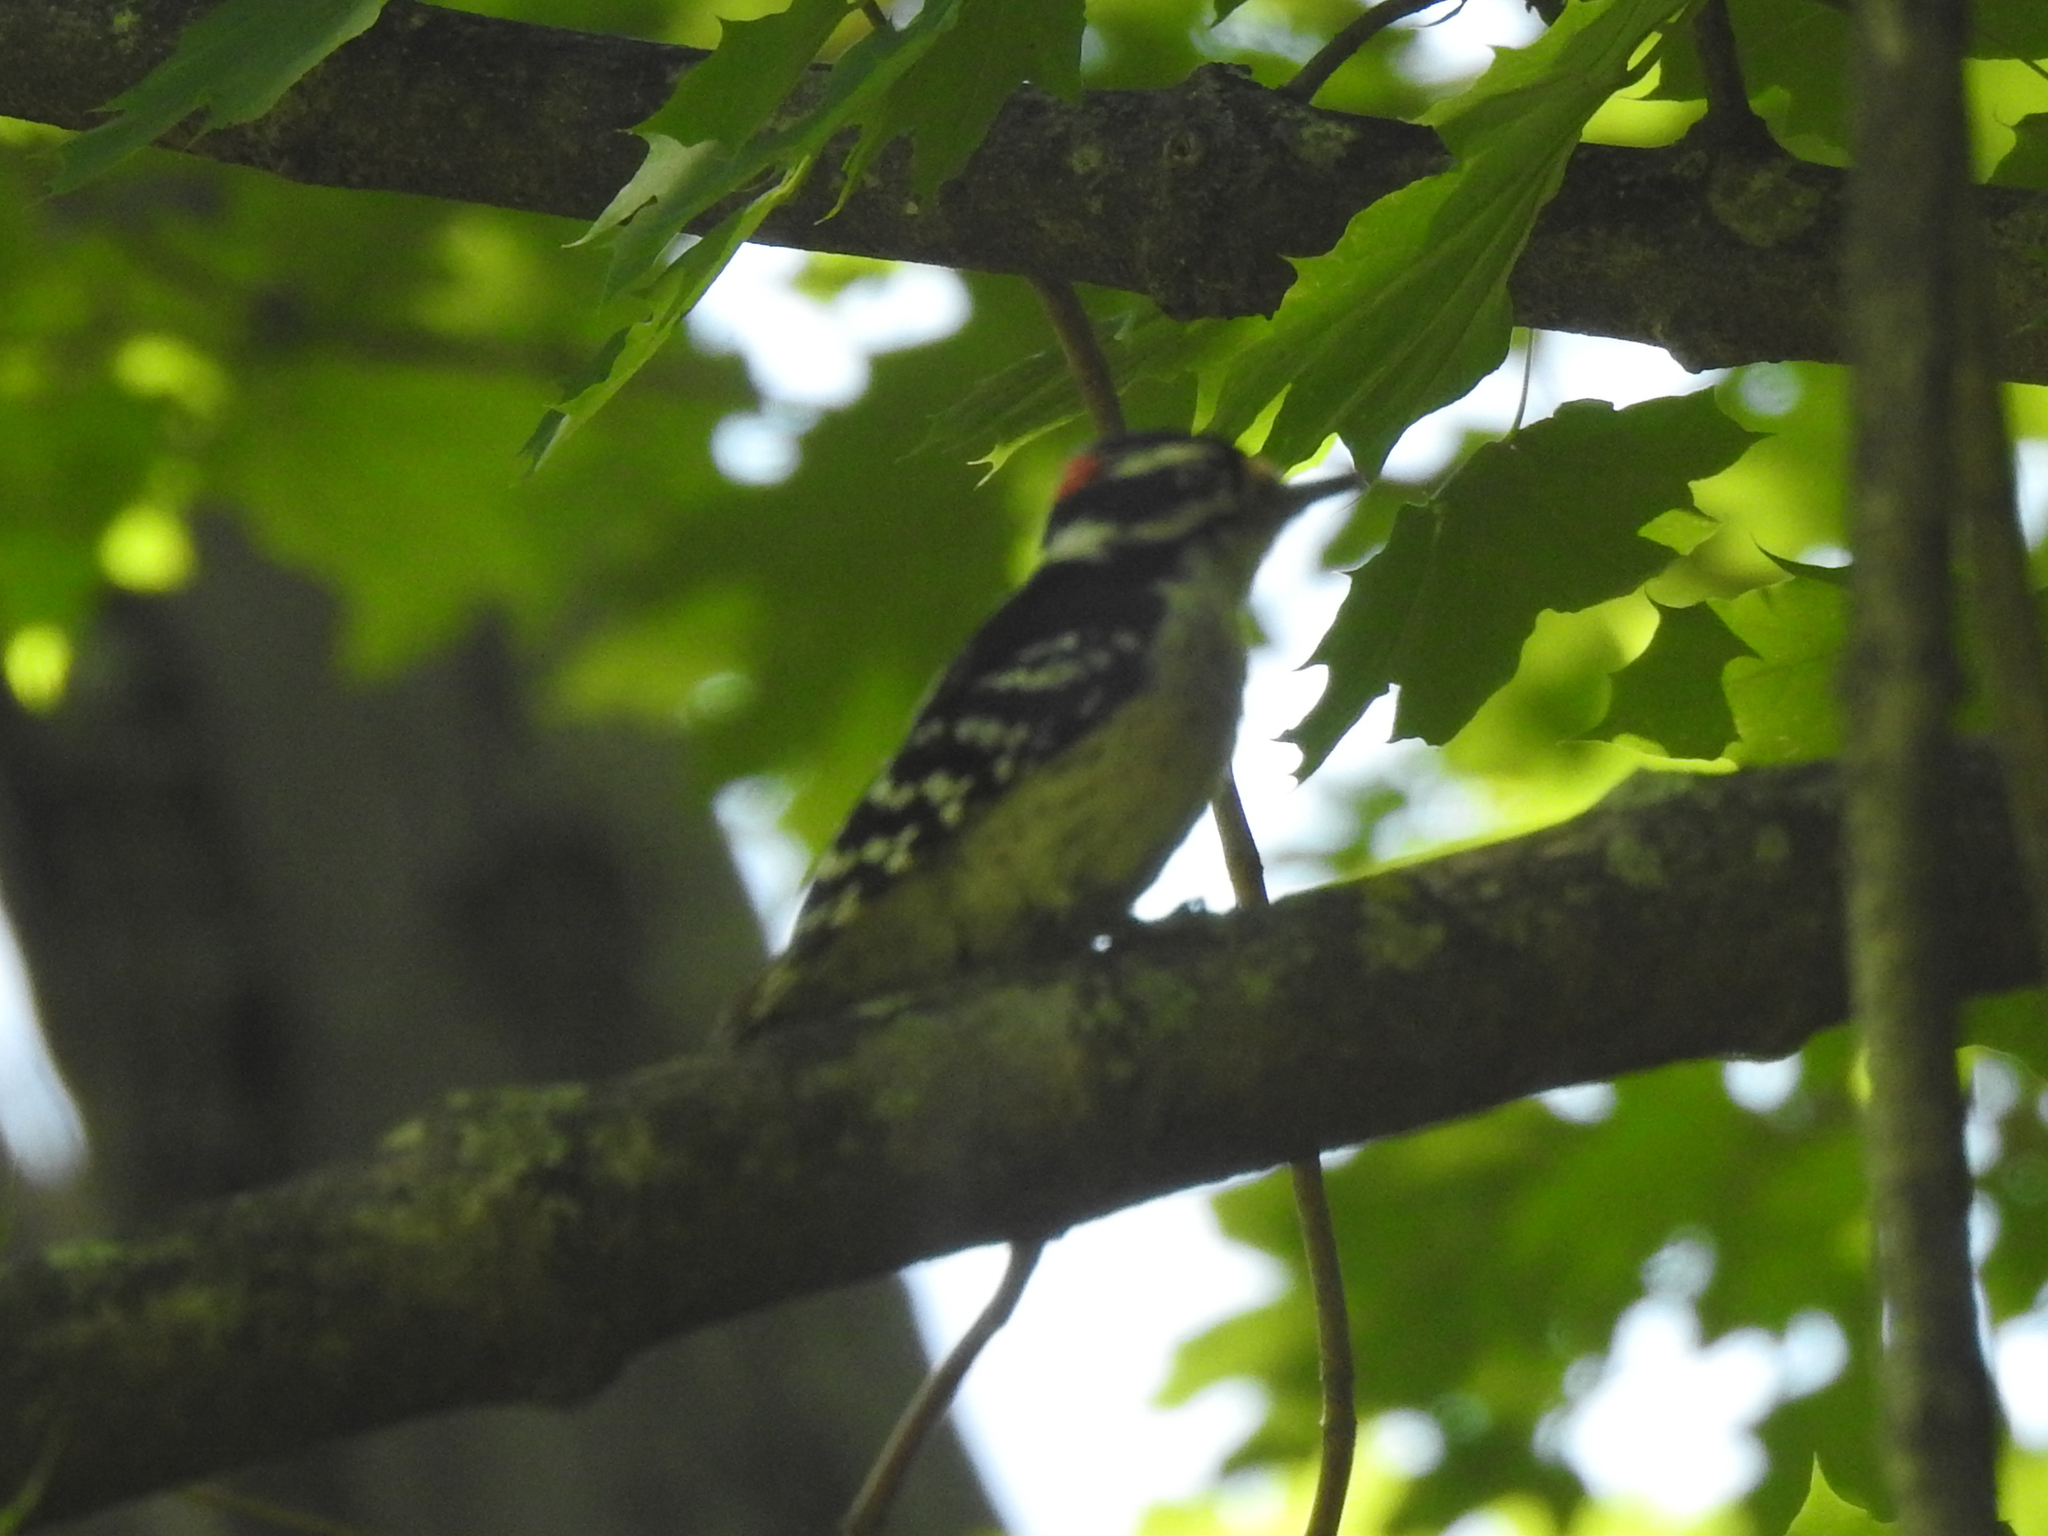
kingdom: Animalia
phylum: Chordata
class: Aves
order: Piciformes
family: Picidae
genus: Dryobates
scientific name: Dryobates pubescens
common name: Downy woodpecker
